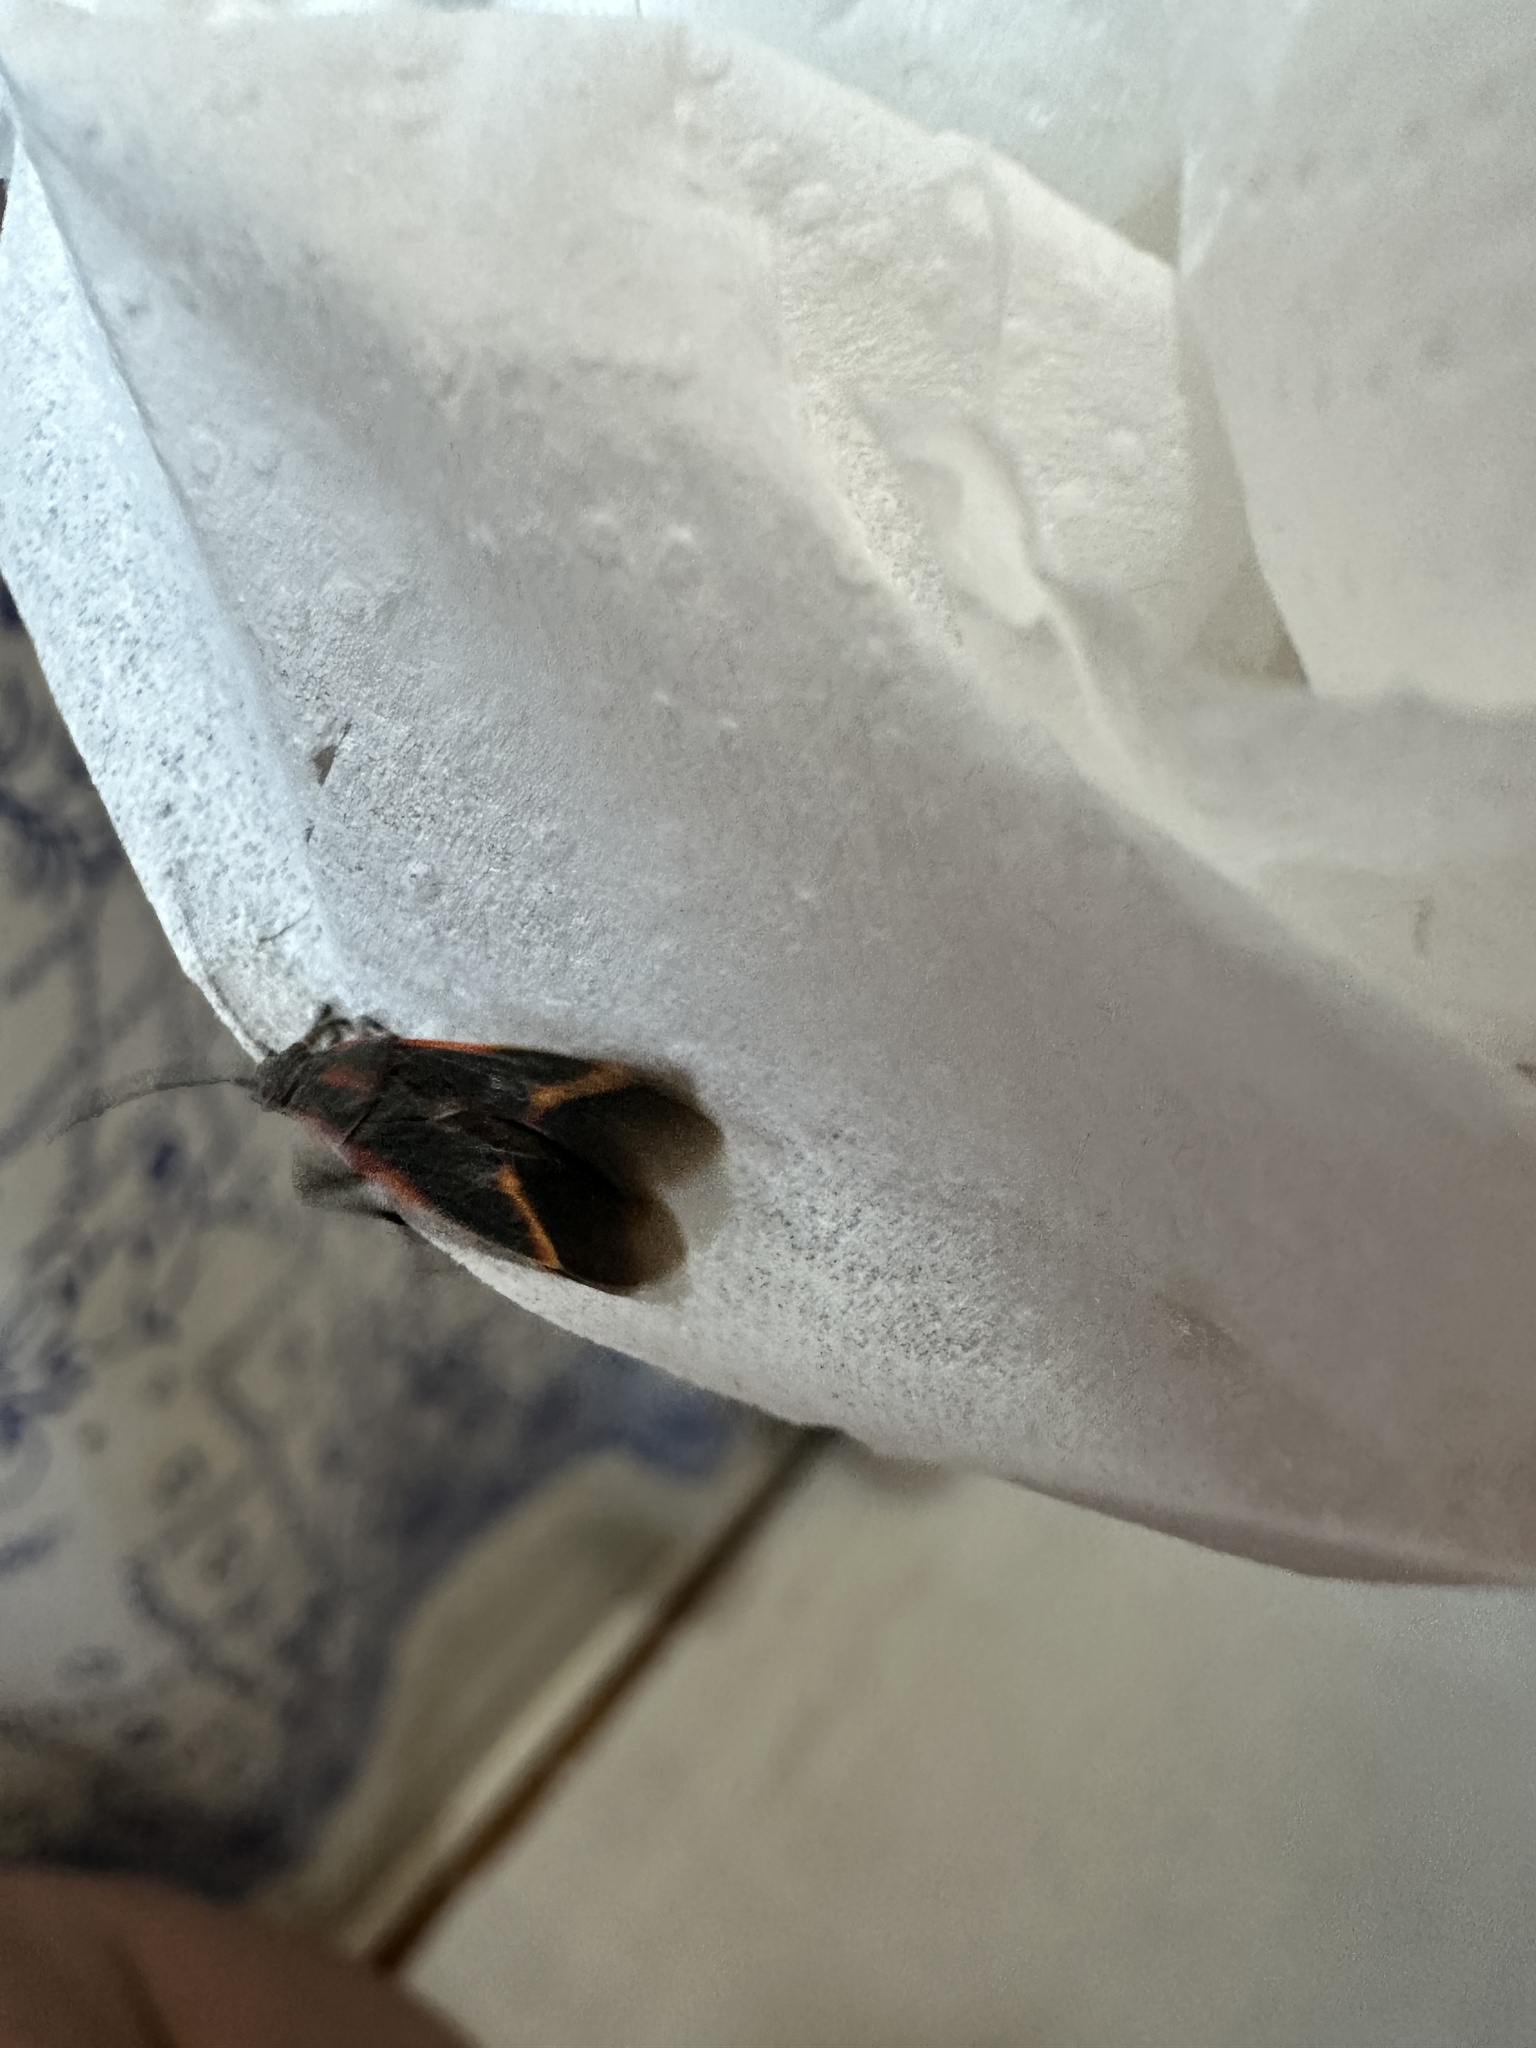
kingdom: Animalia
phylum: Arthropoda
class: Insecta
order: Hemiptera
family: Rhopalidae
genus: Boisea
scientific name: Boisea trivittata
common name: Boxelder bug
